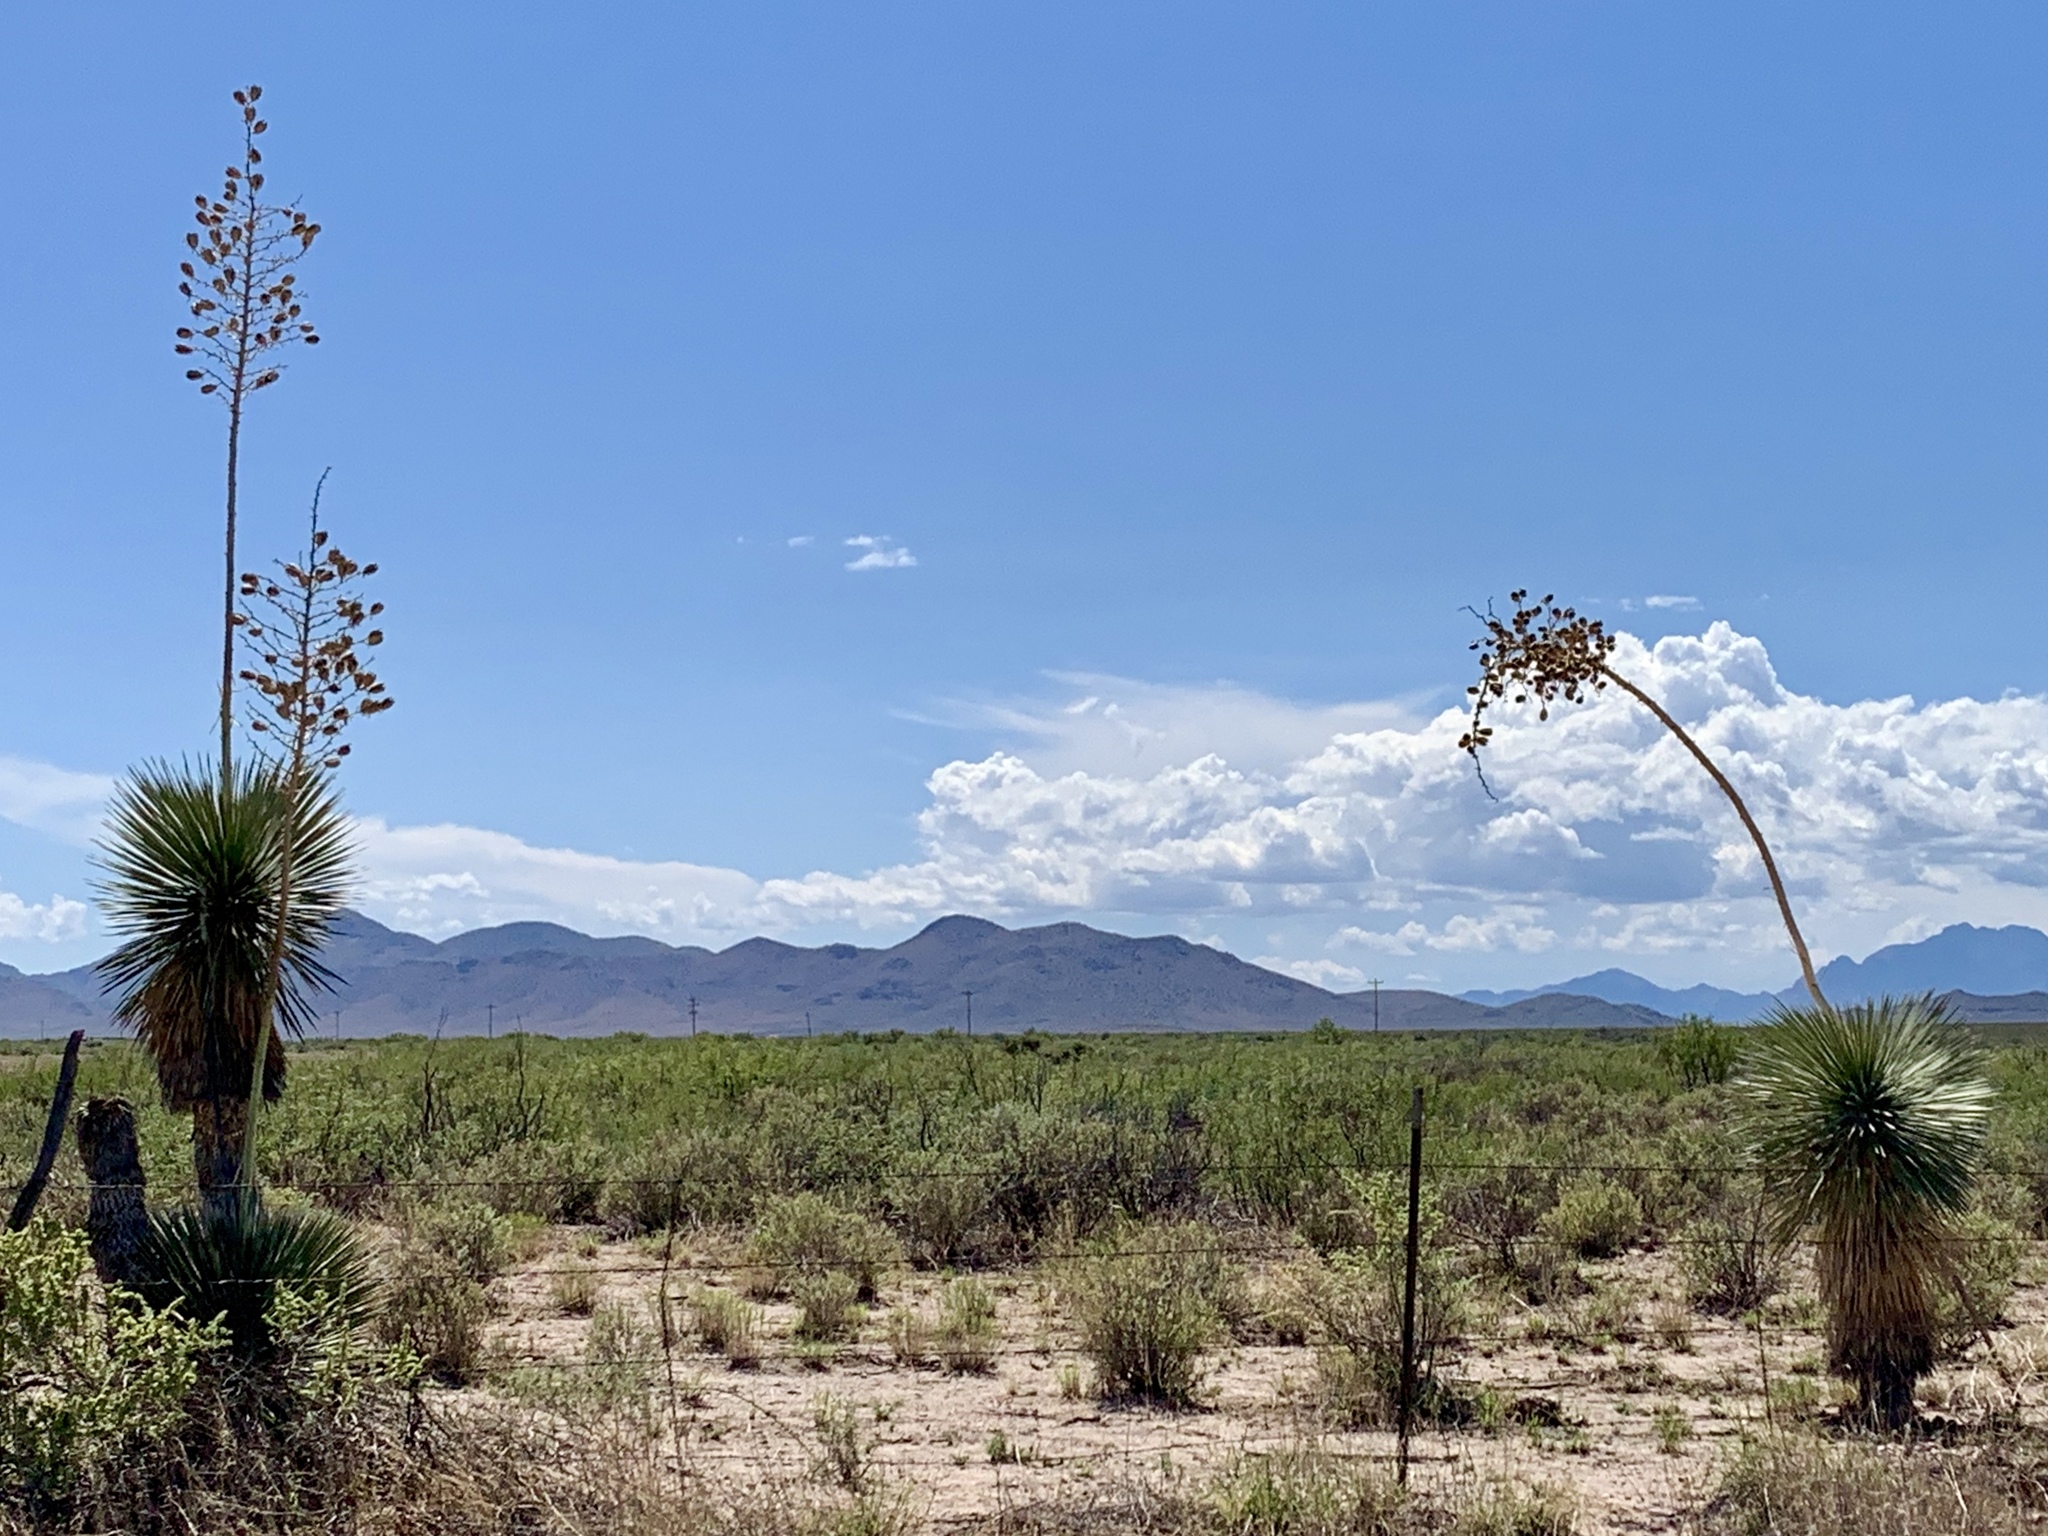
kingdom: Plantae
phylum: Tracheophyta
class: Liliopsida
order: Asparagales
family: Asparagaceae
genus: Yucca
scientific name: Yucca elata
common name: Palmella
